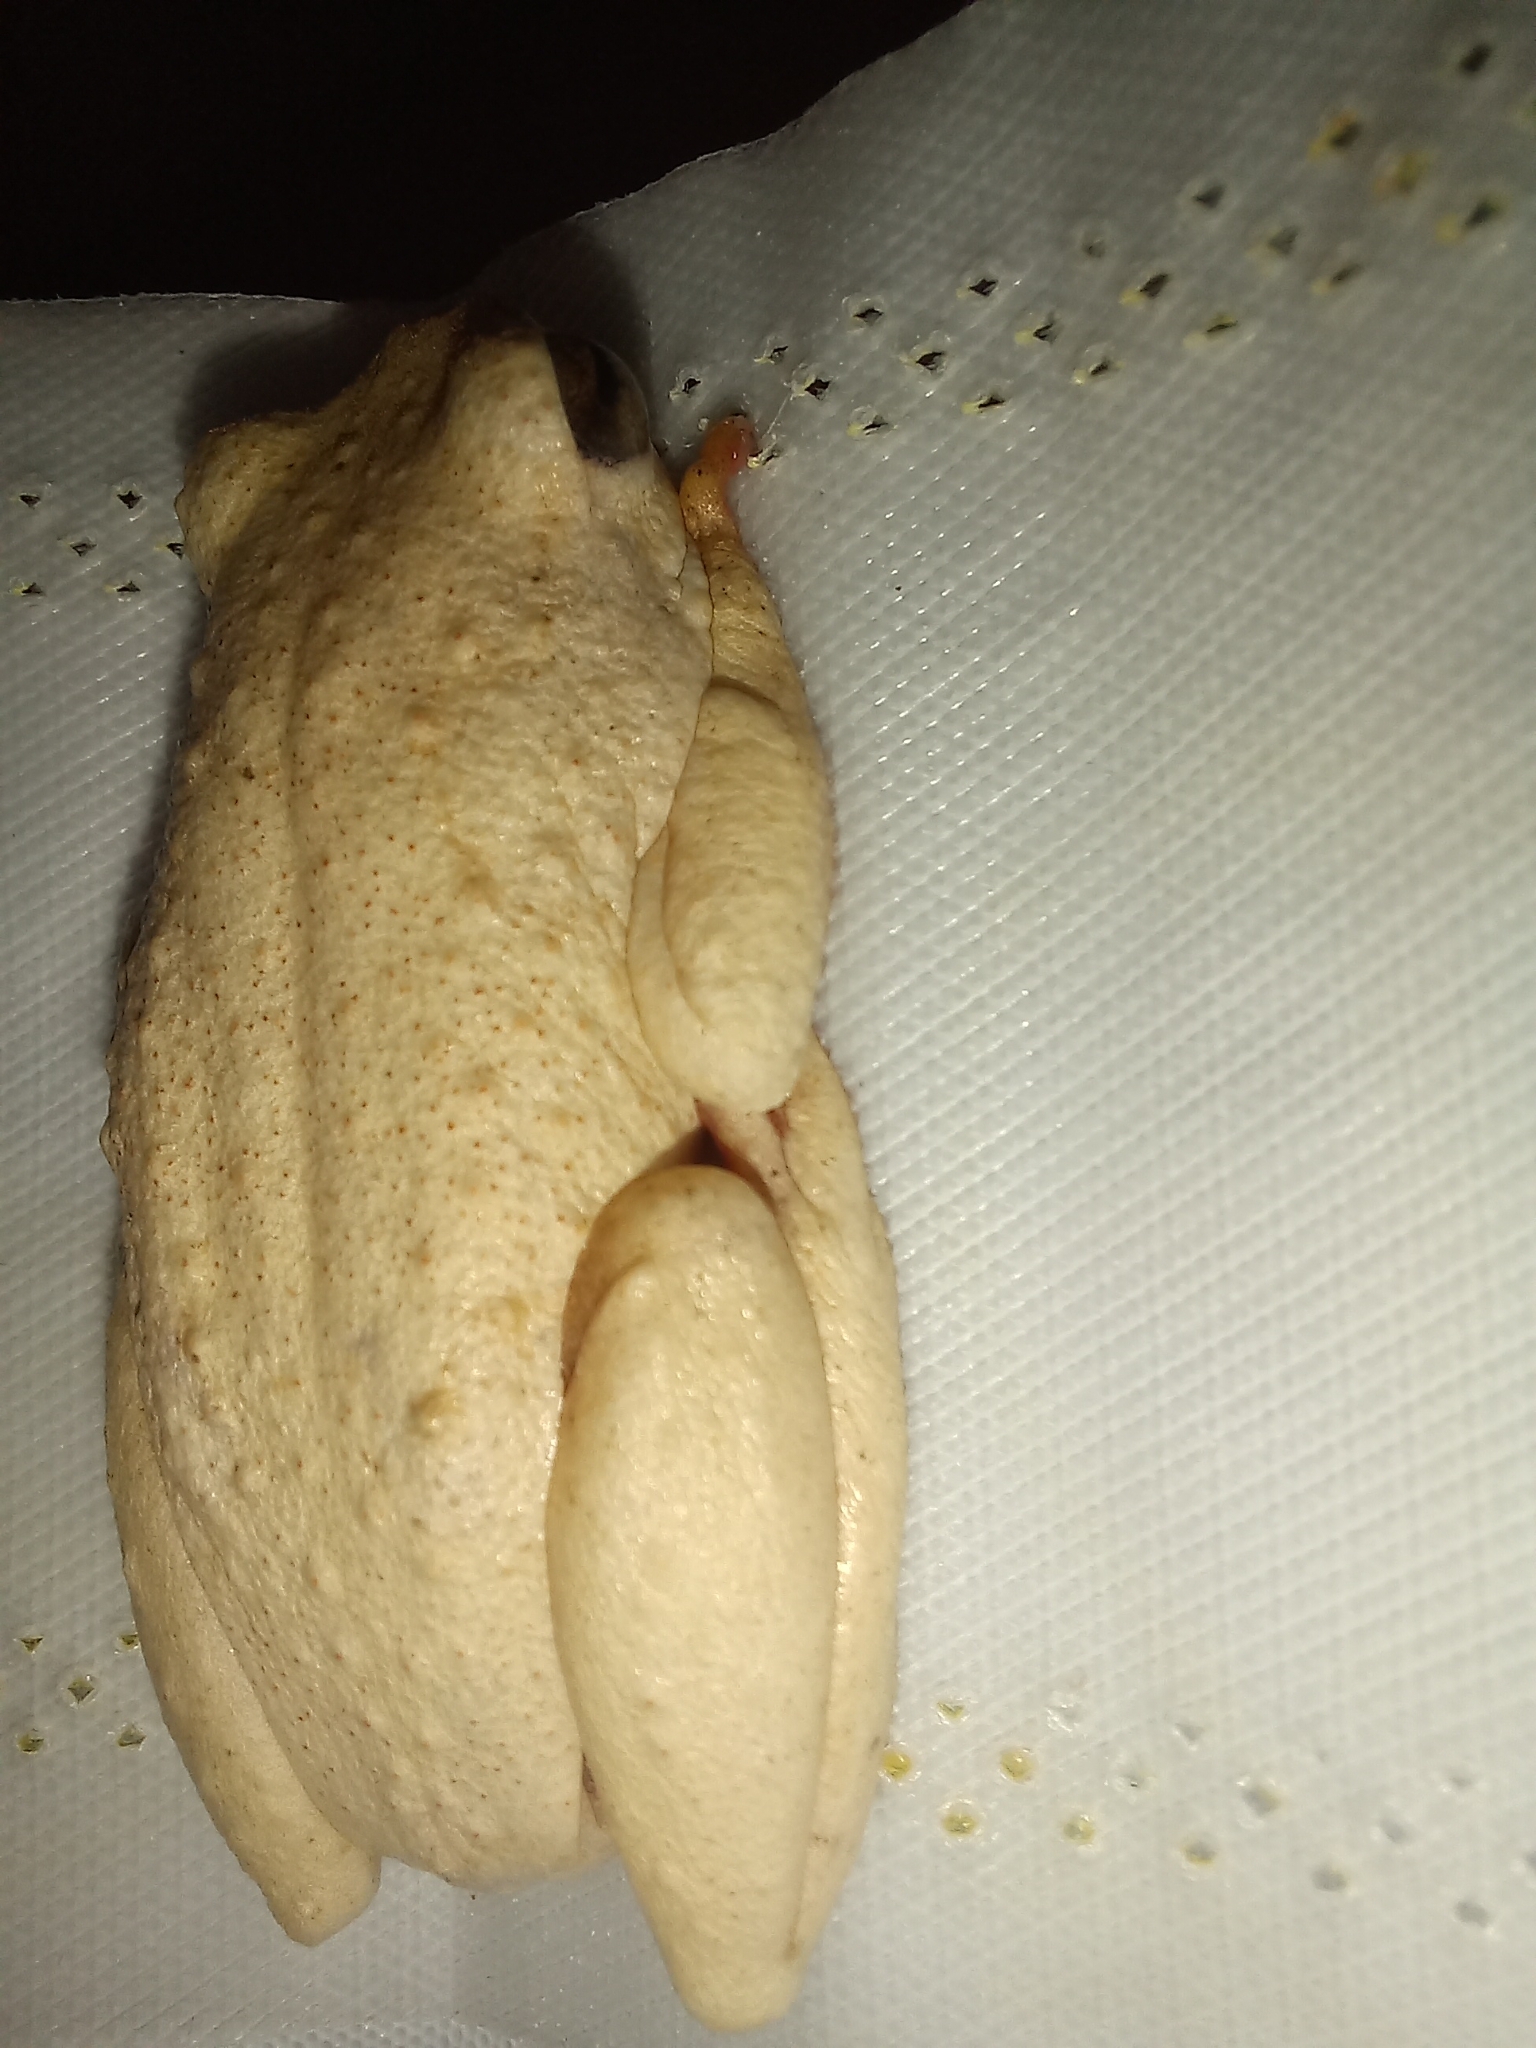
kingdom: Animalia
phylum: Chordata
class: Amphibia
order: Anura
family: Hyperoliidae
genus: Hyperolius
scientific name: Hyperolius viridiflavus
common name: Common reed frog
